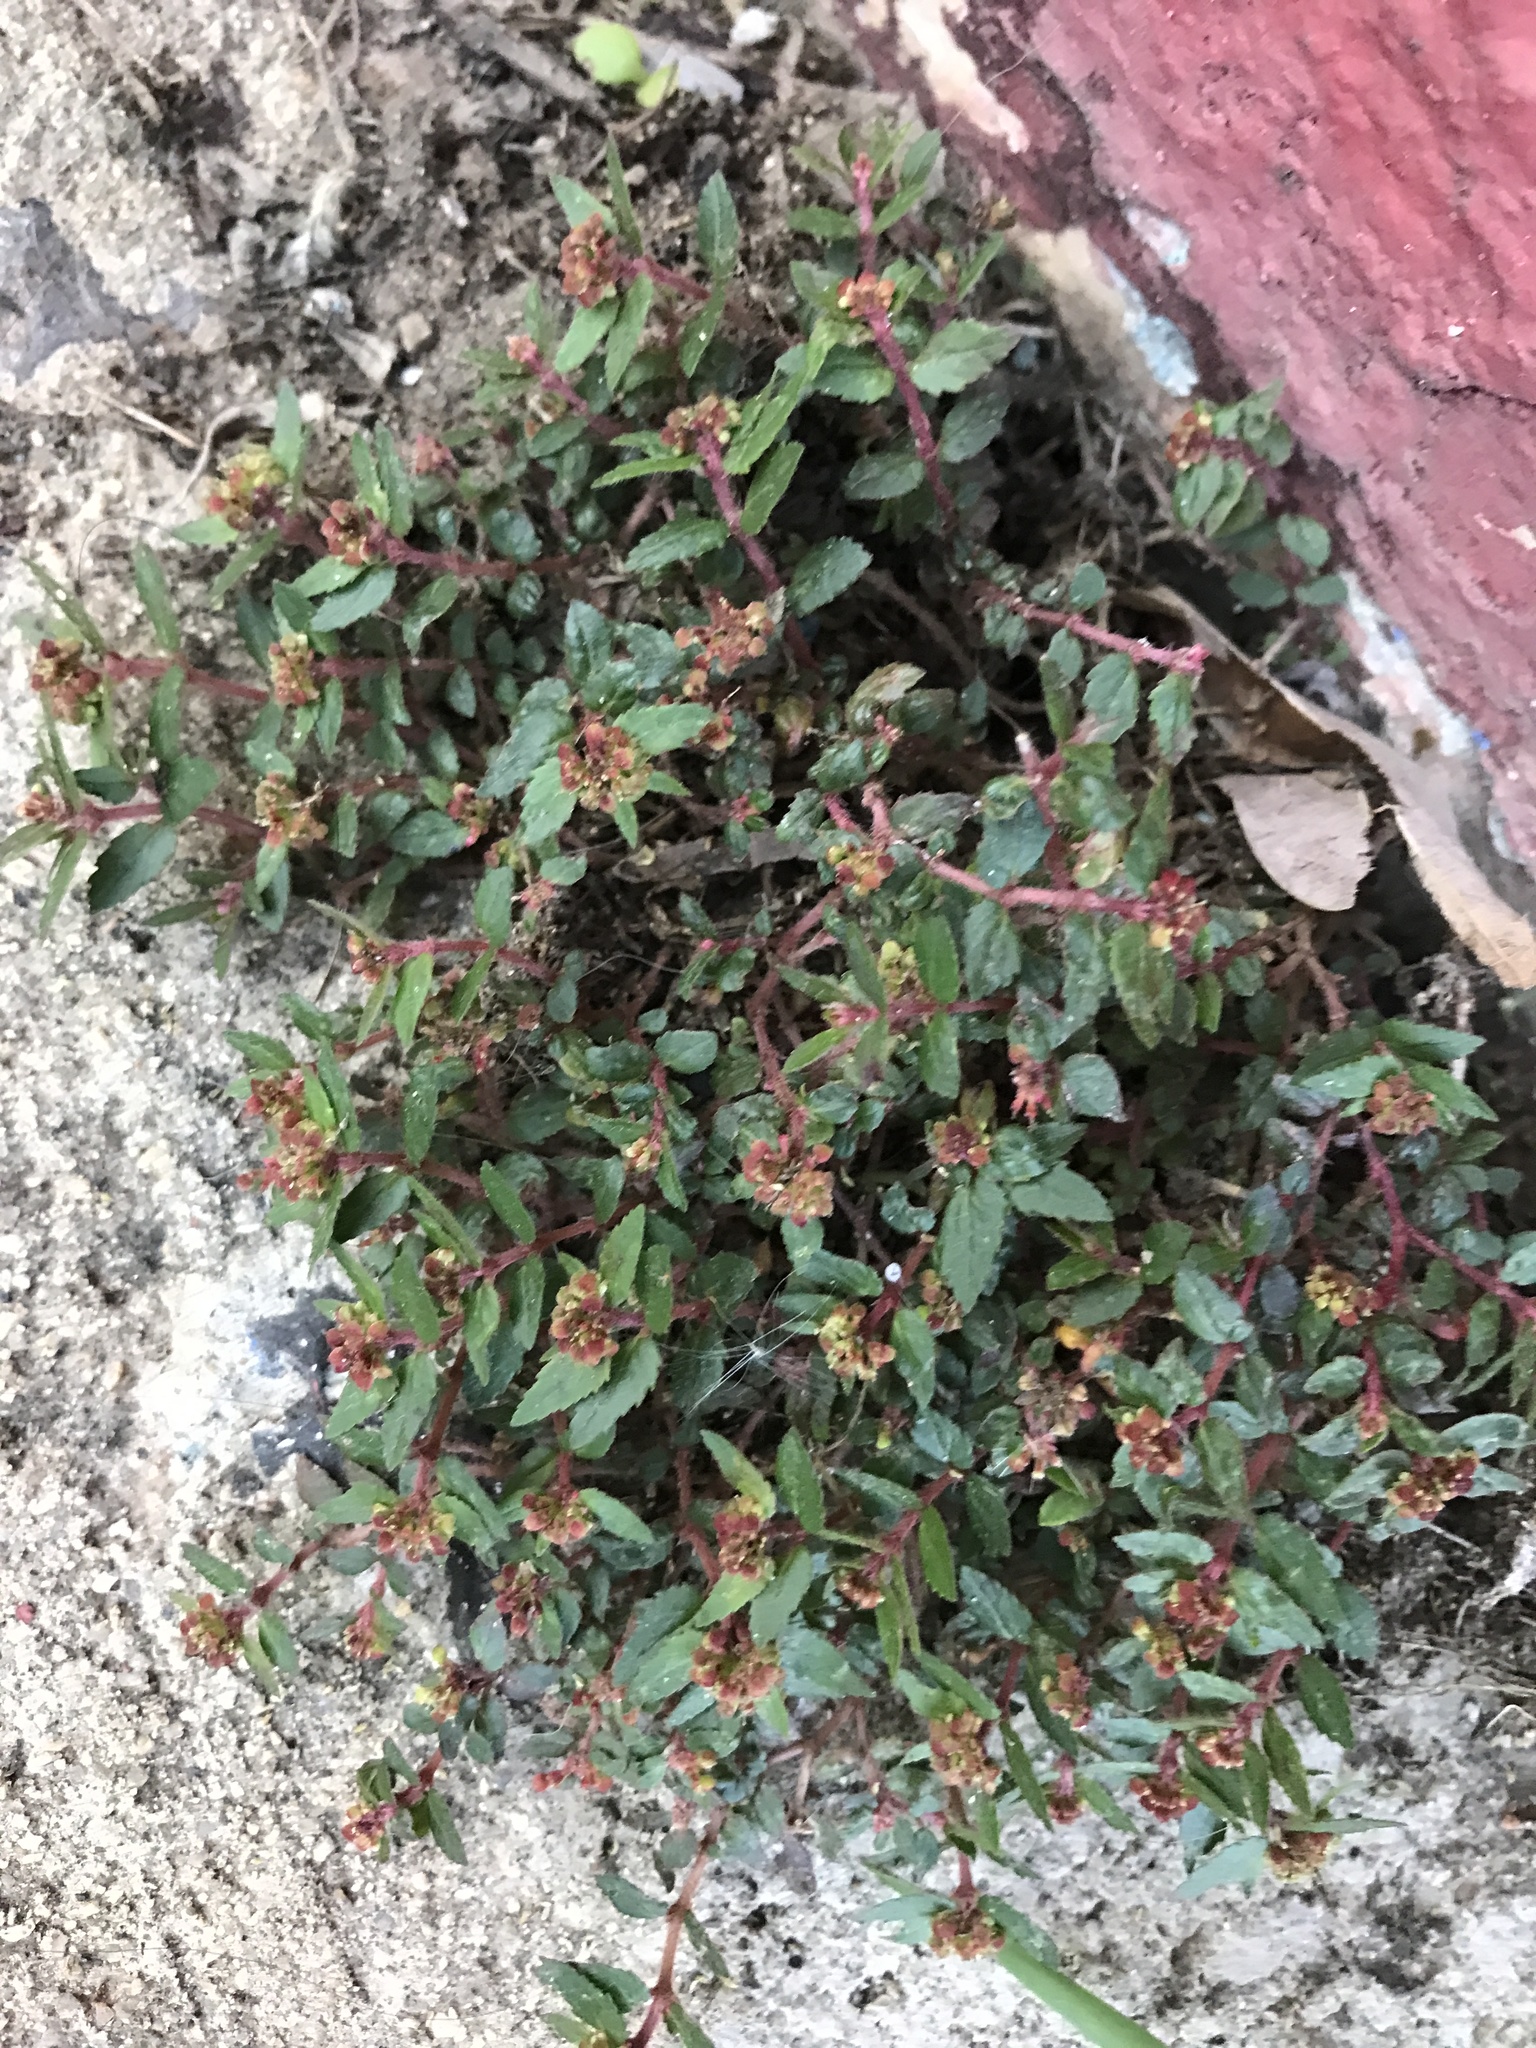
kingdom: Plantae
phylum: Tracheophyta
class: Magnoliopsida
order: Malpighiales
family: Euphorbiaceae
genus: Euphorbia
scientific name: Euphorbia ophthalmica
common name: Florida hammock sandmat
